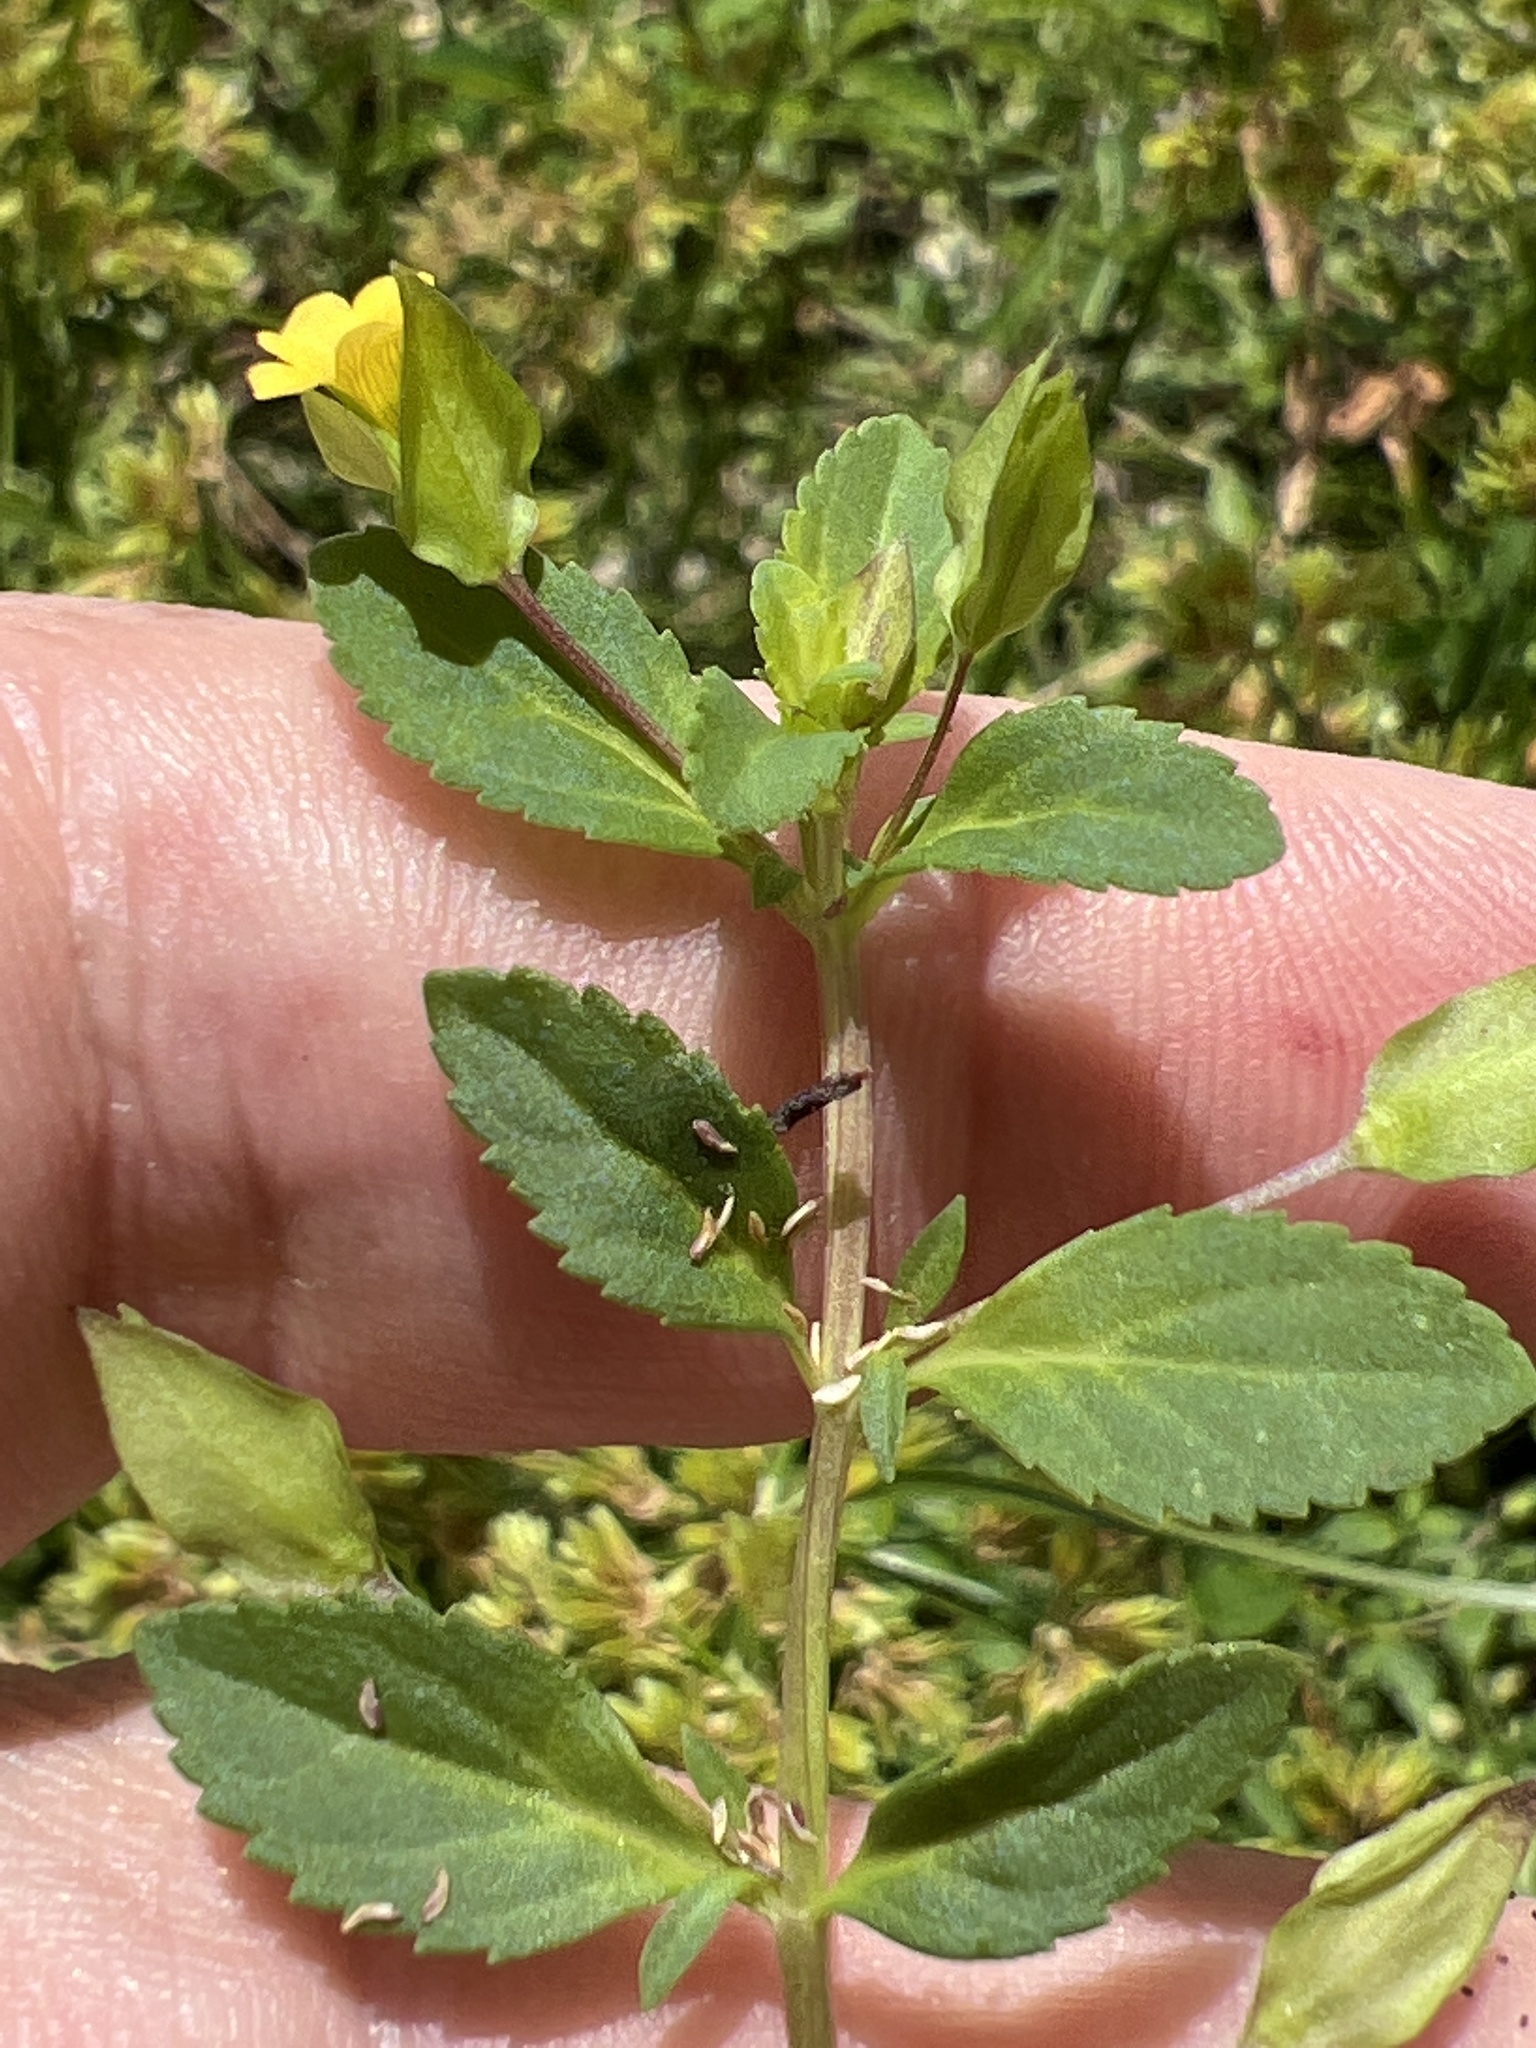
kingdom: Plantae
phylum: Tracheophyta
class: Magnoliopsida
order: Lamiales
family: Plantaginaceae
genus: Mecardonia
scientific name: Mecardonia procumbens
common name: Baby jump-up
